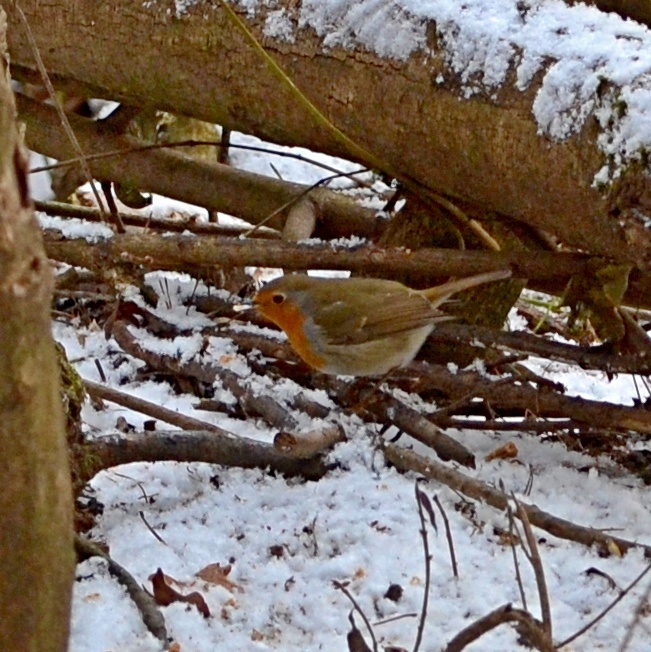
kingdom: Animalia
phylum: Chordata
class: Aves
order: Passeriformes
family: Muscicapidae
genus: Erithacus
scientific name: Erithacus rubecula
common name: European robin
